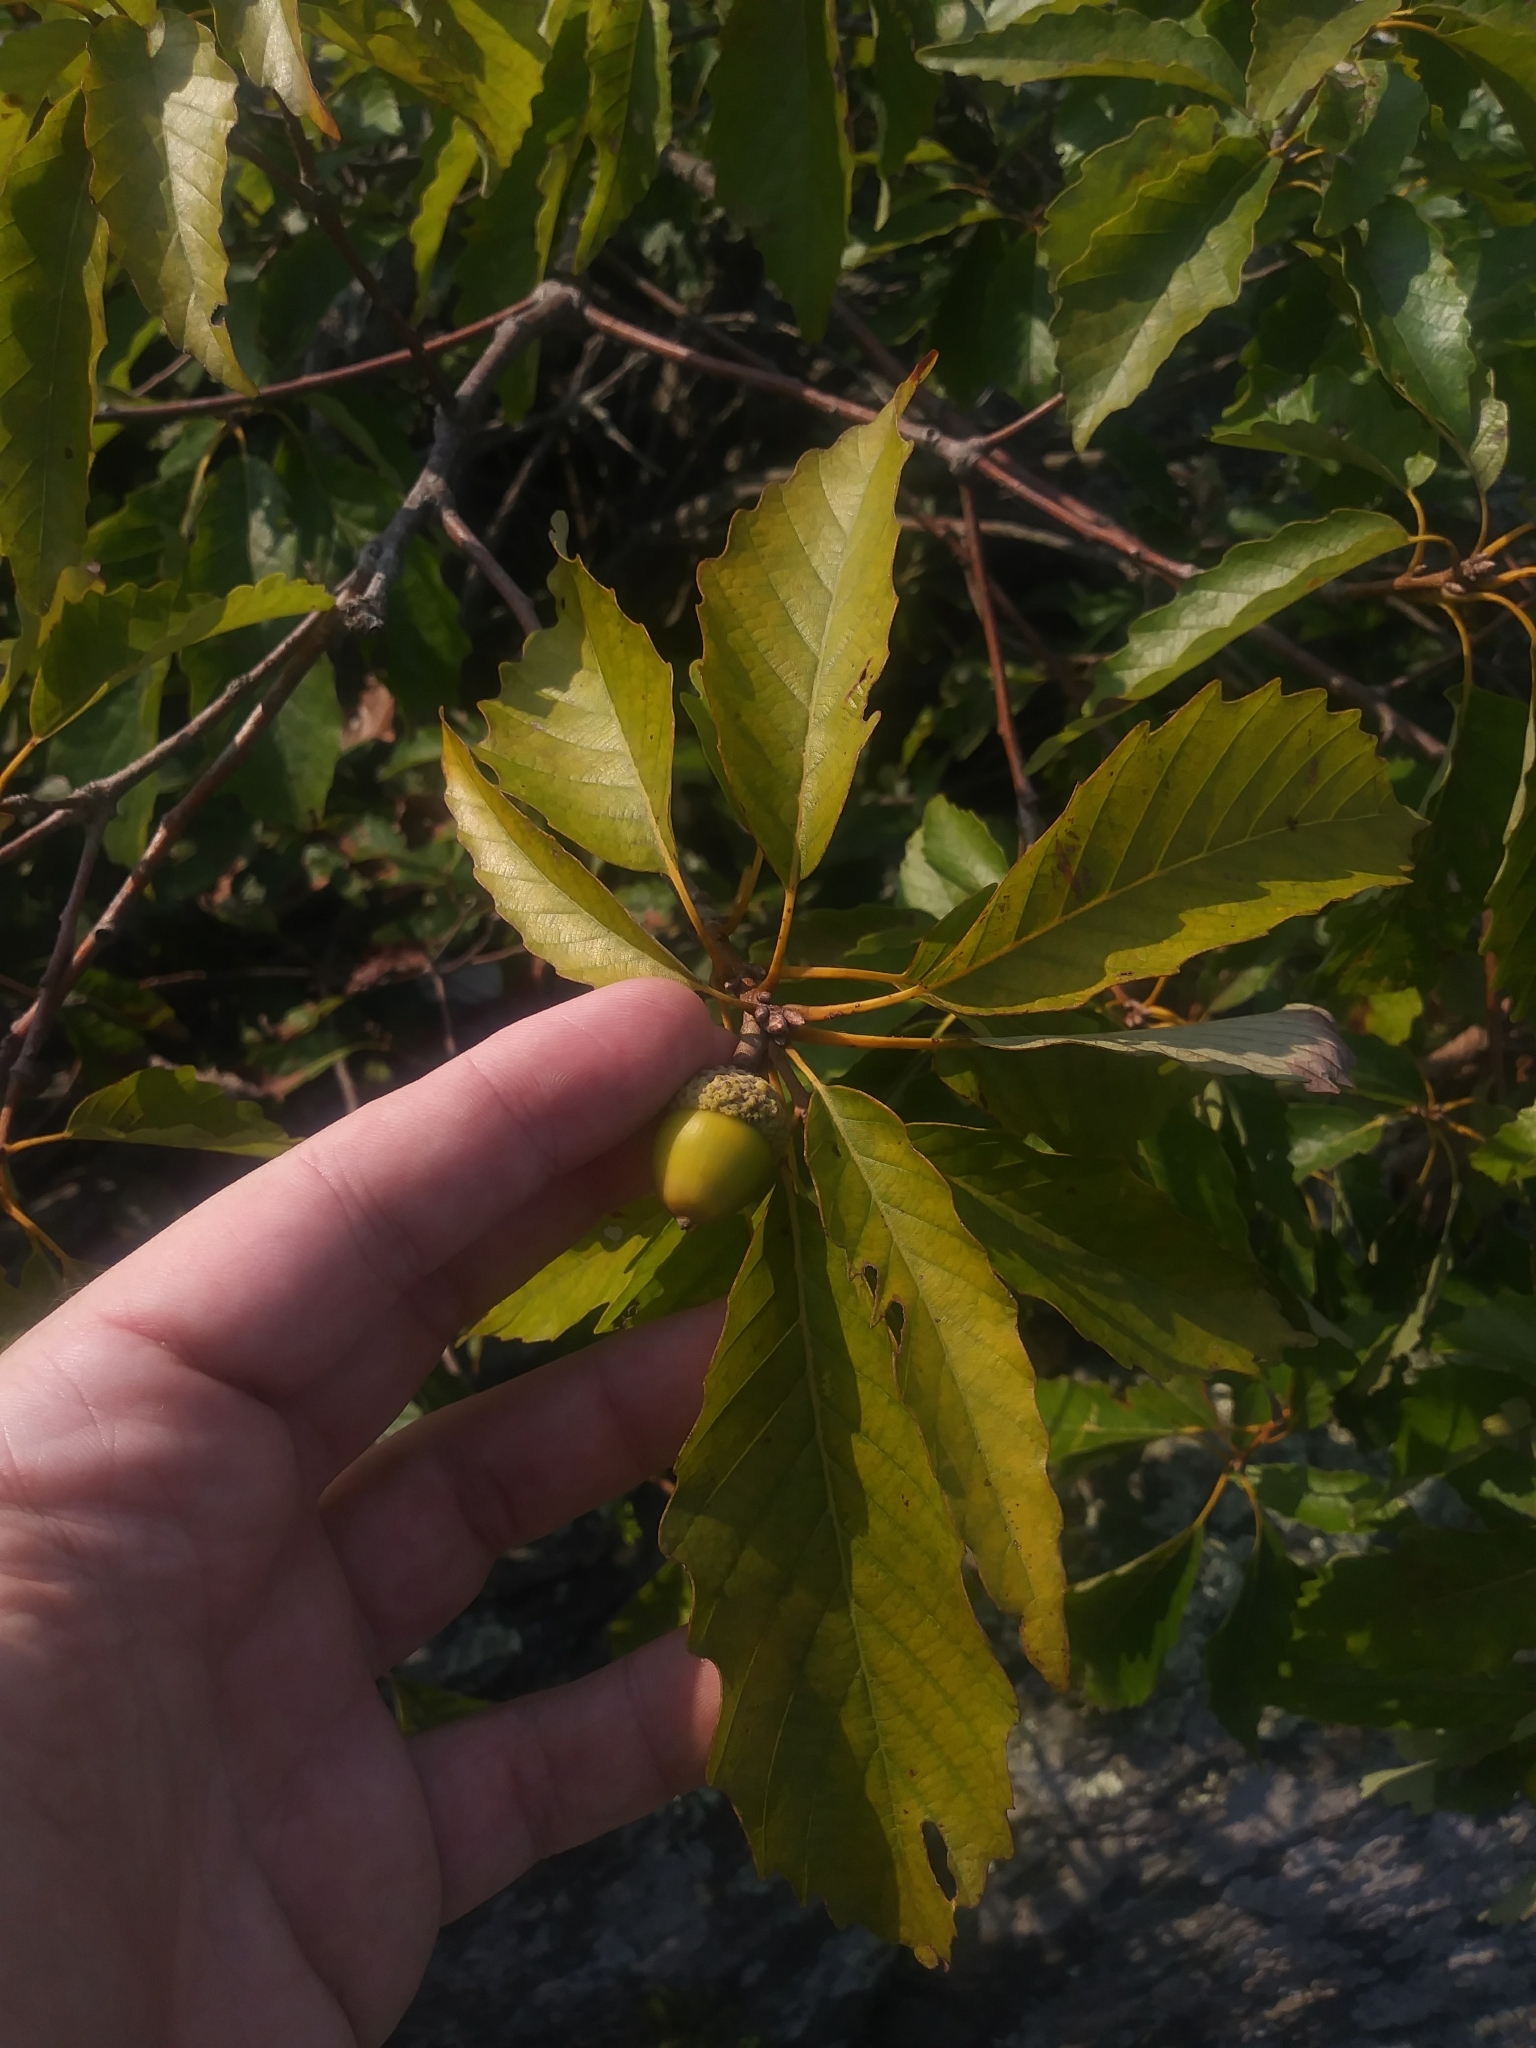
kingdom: Plantae
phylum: Tracheophyta
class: Magnoliopsida
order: Fagales
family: Fagaceae
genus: Quercus
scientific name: Quercus montana
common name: Chestnut oak
